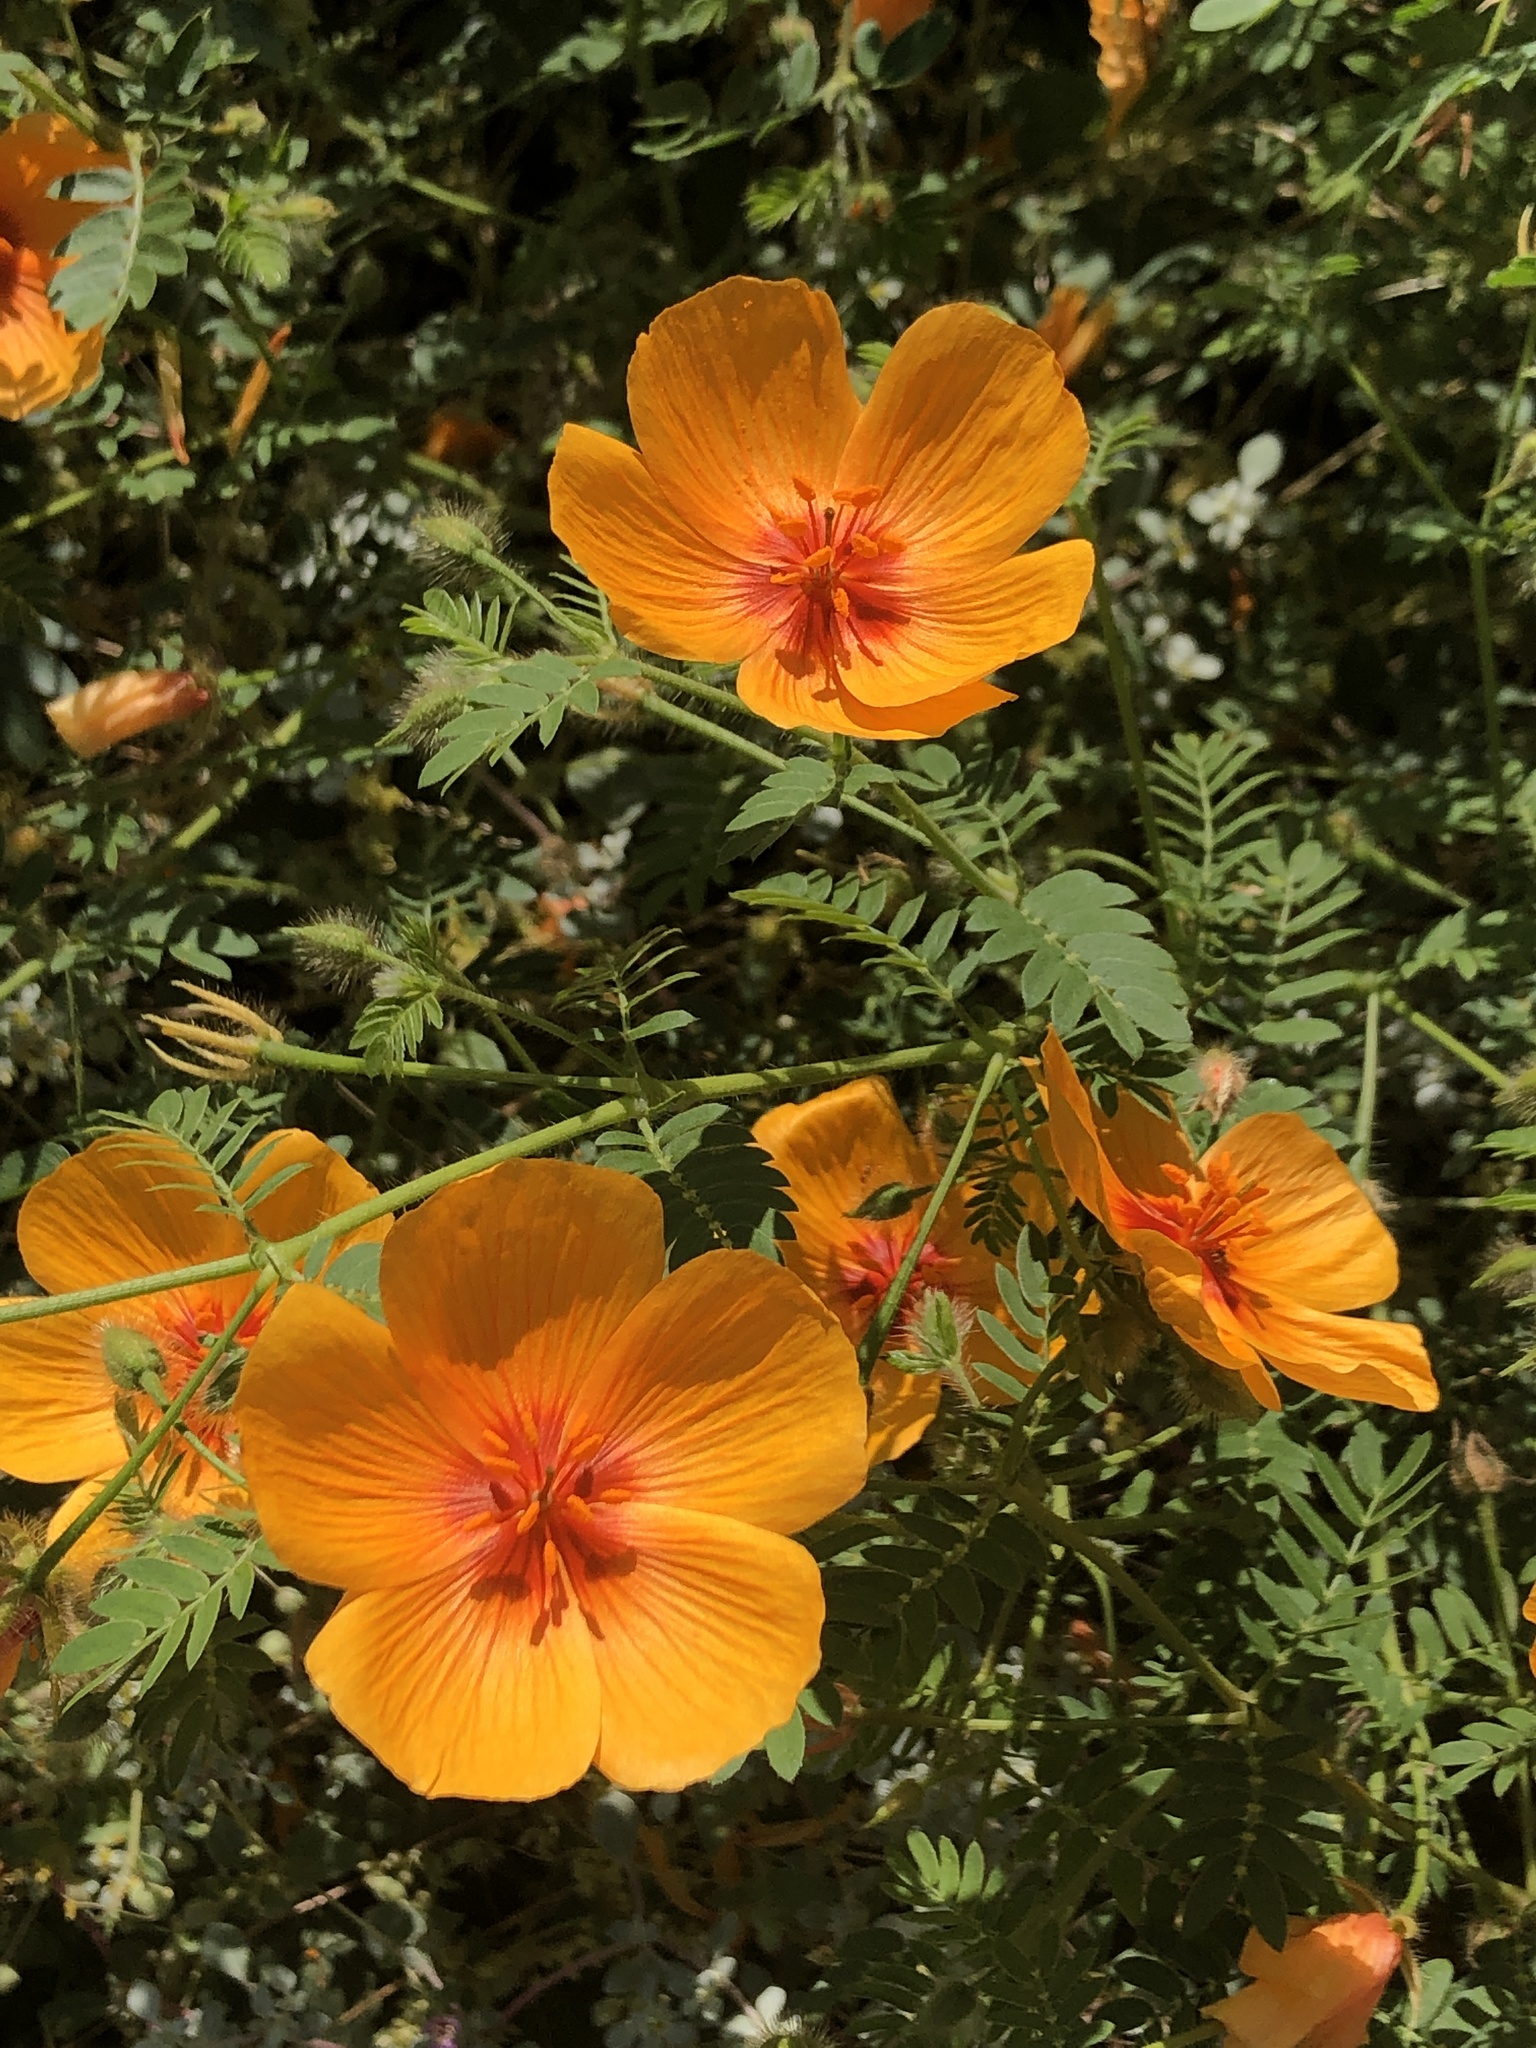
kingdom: Plantae
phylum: Tracheophyta
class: Magnoliopsida
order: Zygophyllales
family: Zygophyllaceae
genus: Kallstroemia
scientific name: Kallstroemia grandiflora
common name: Arizona-poppy
